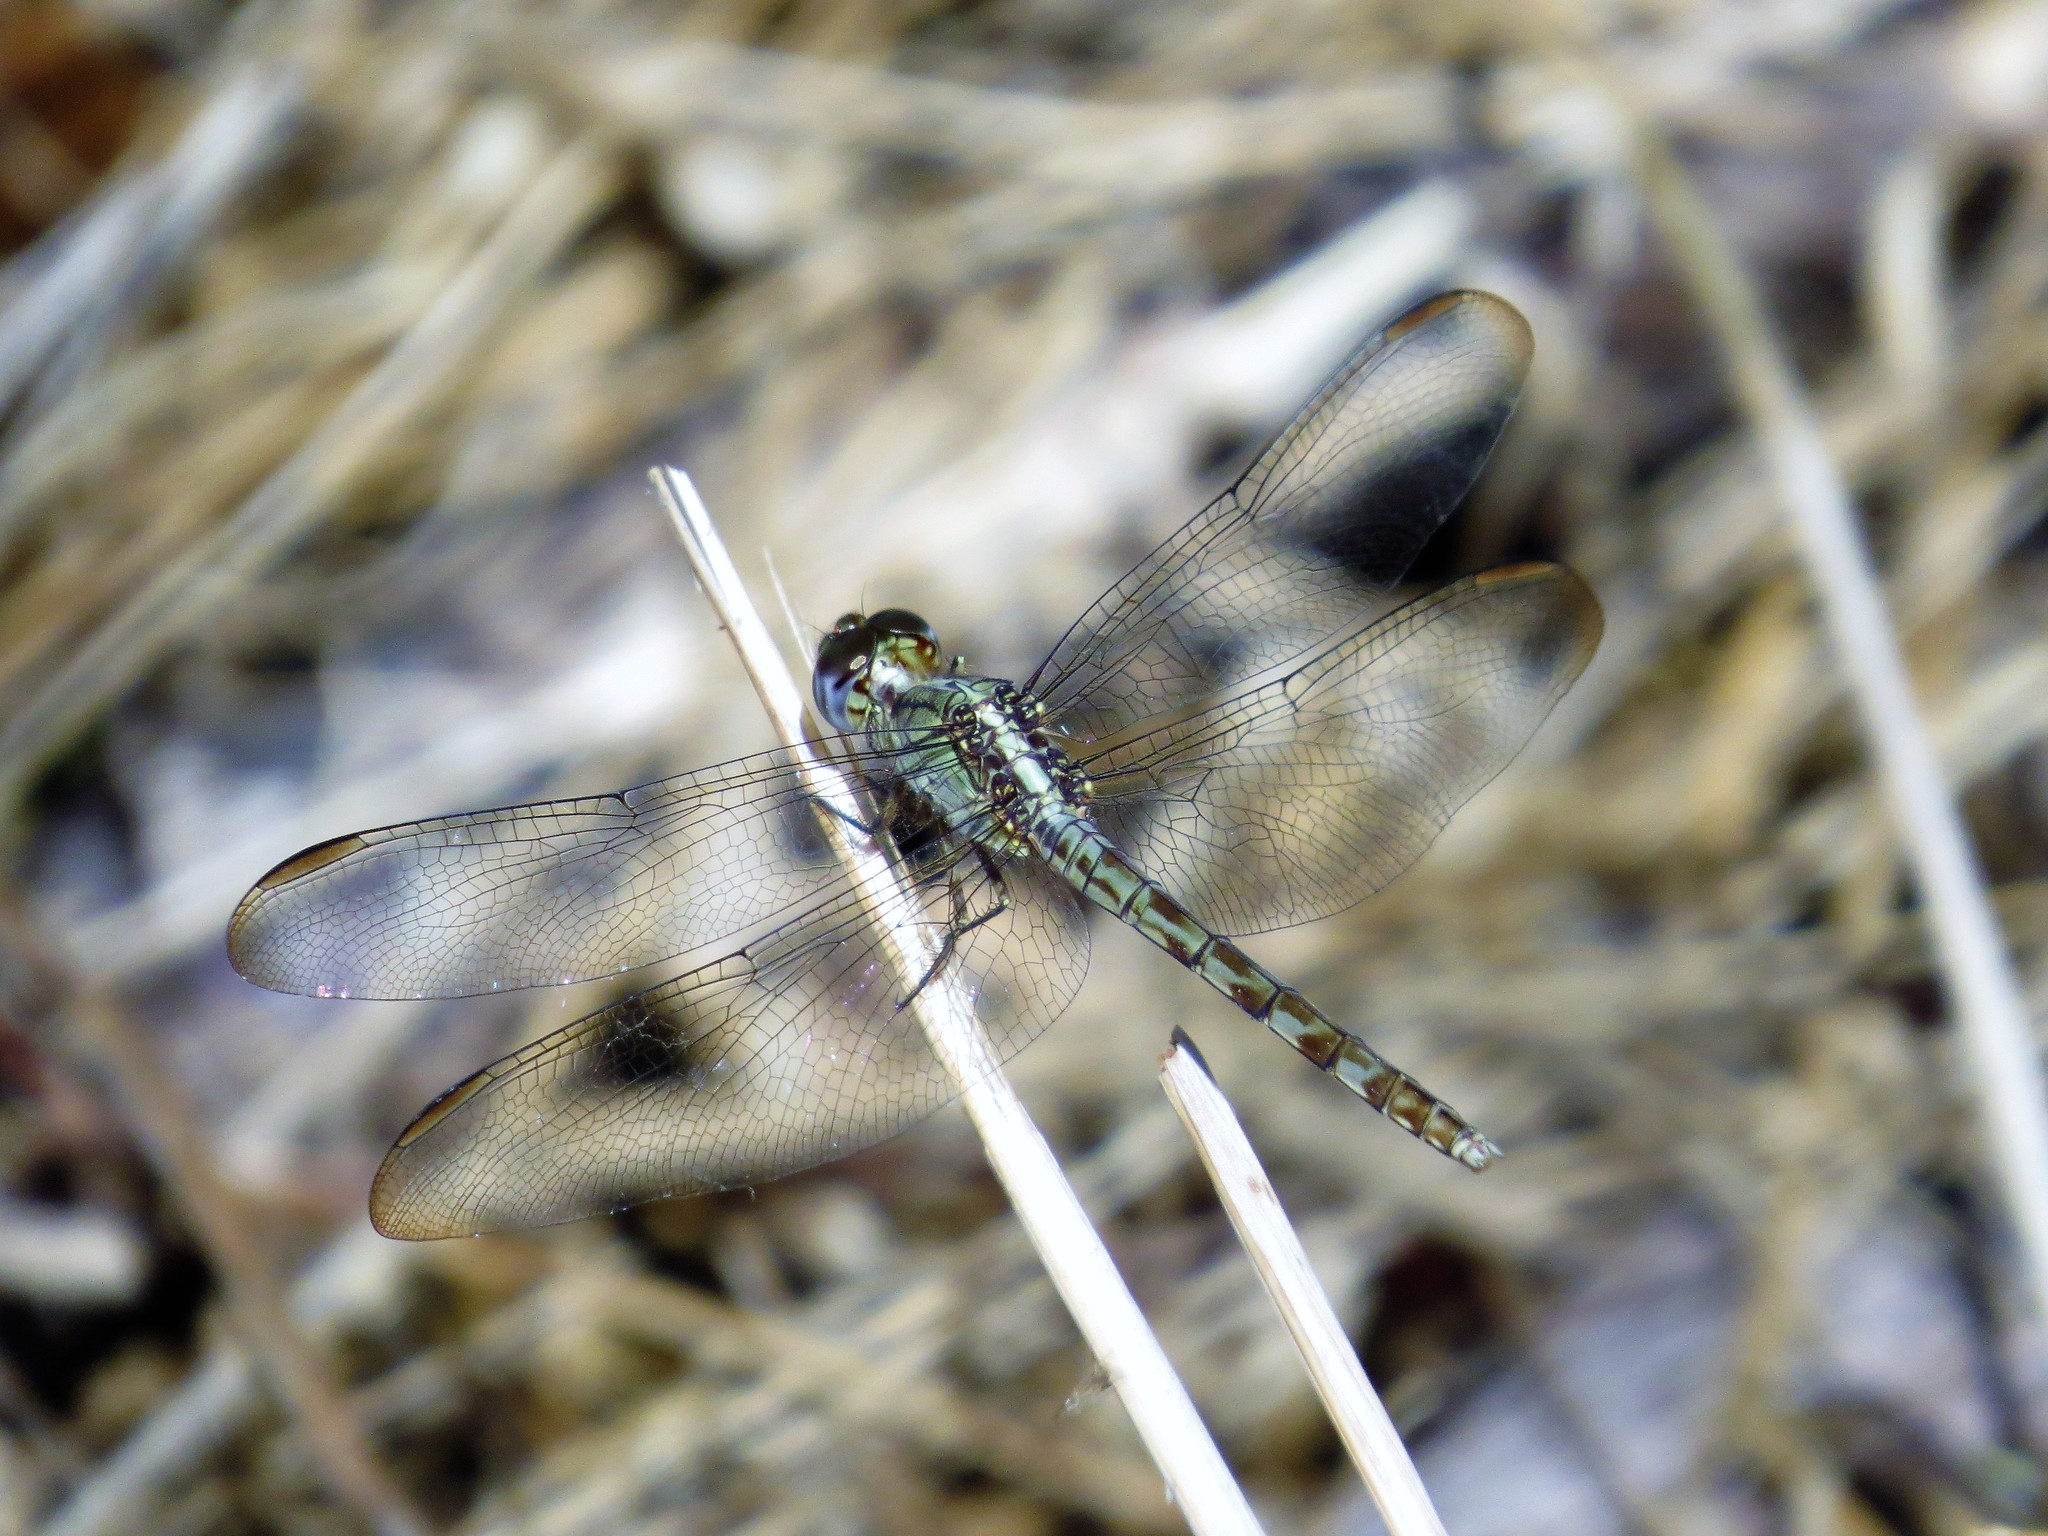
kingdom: Animalia
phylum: Arthropoda
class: Insecta
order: Odonata
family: Libellulidae
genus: Erythrodiplax
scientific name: Erythrodiplax umbrata
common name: Band-winged dragonlet
